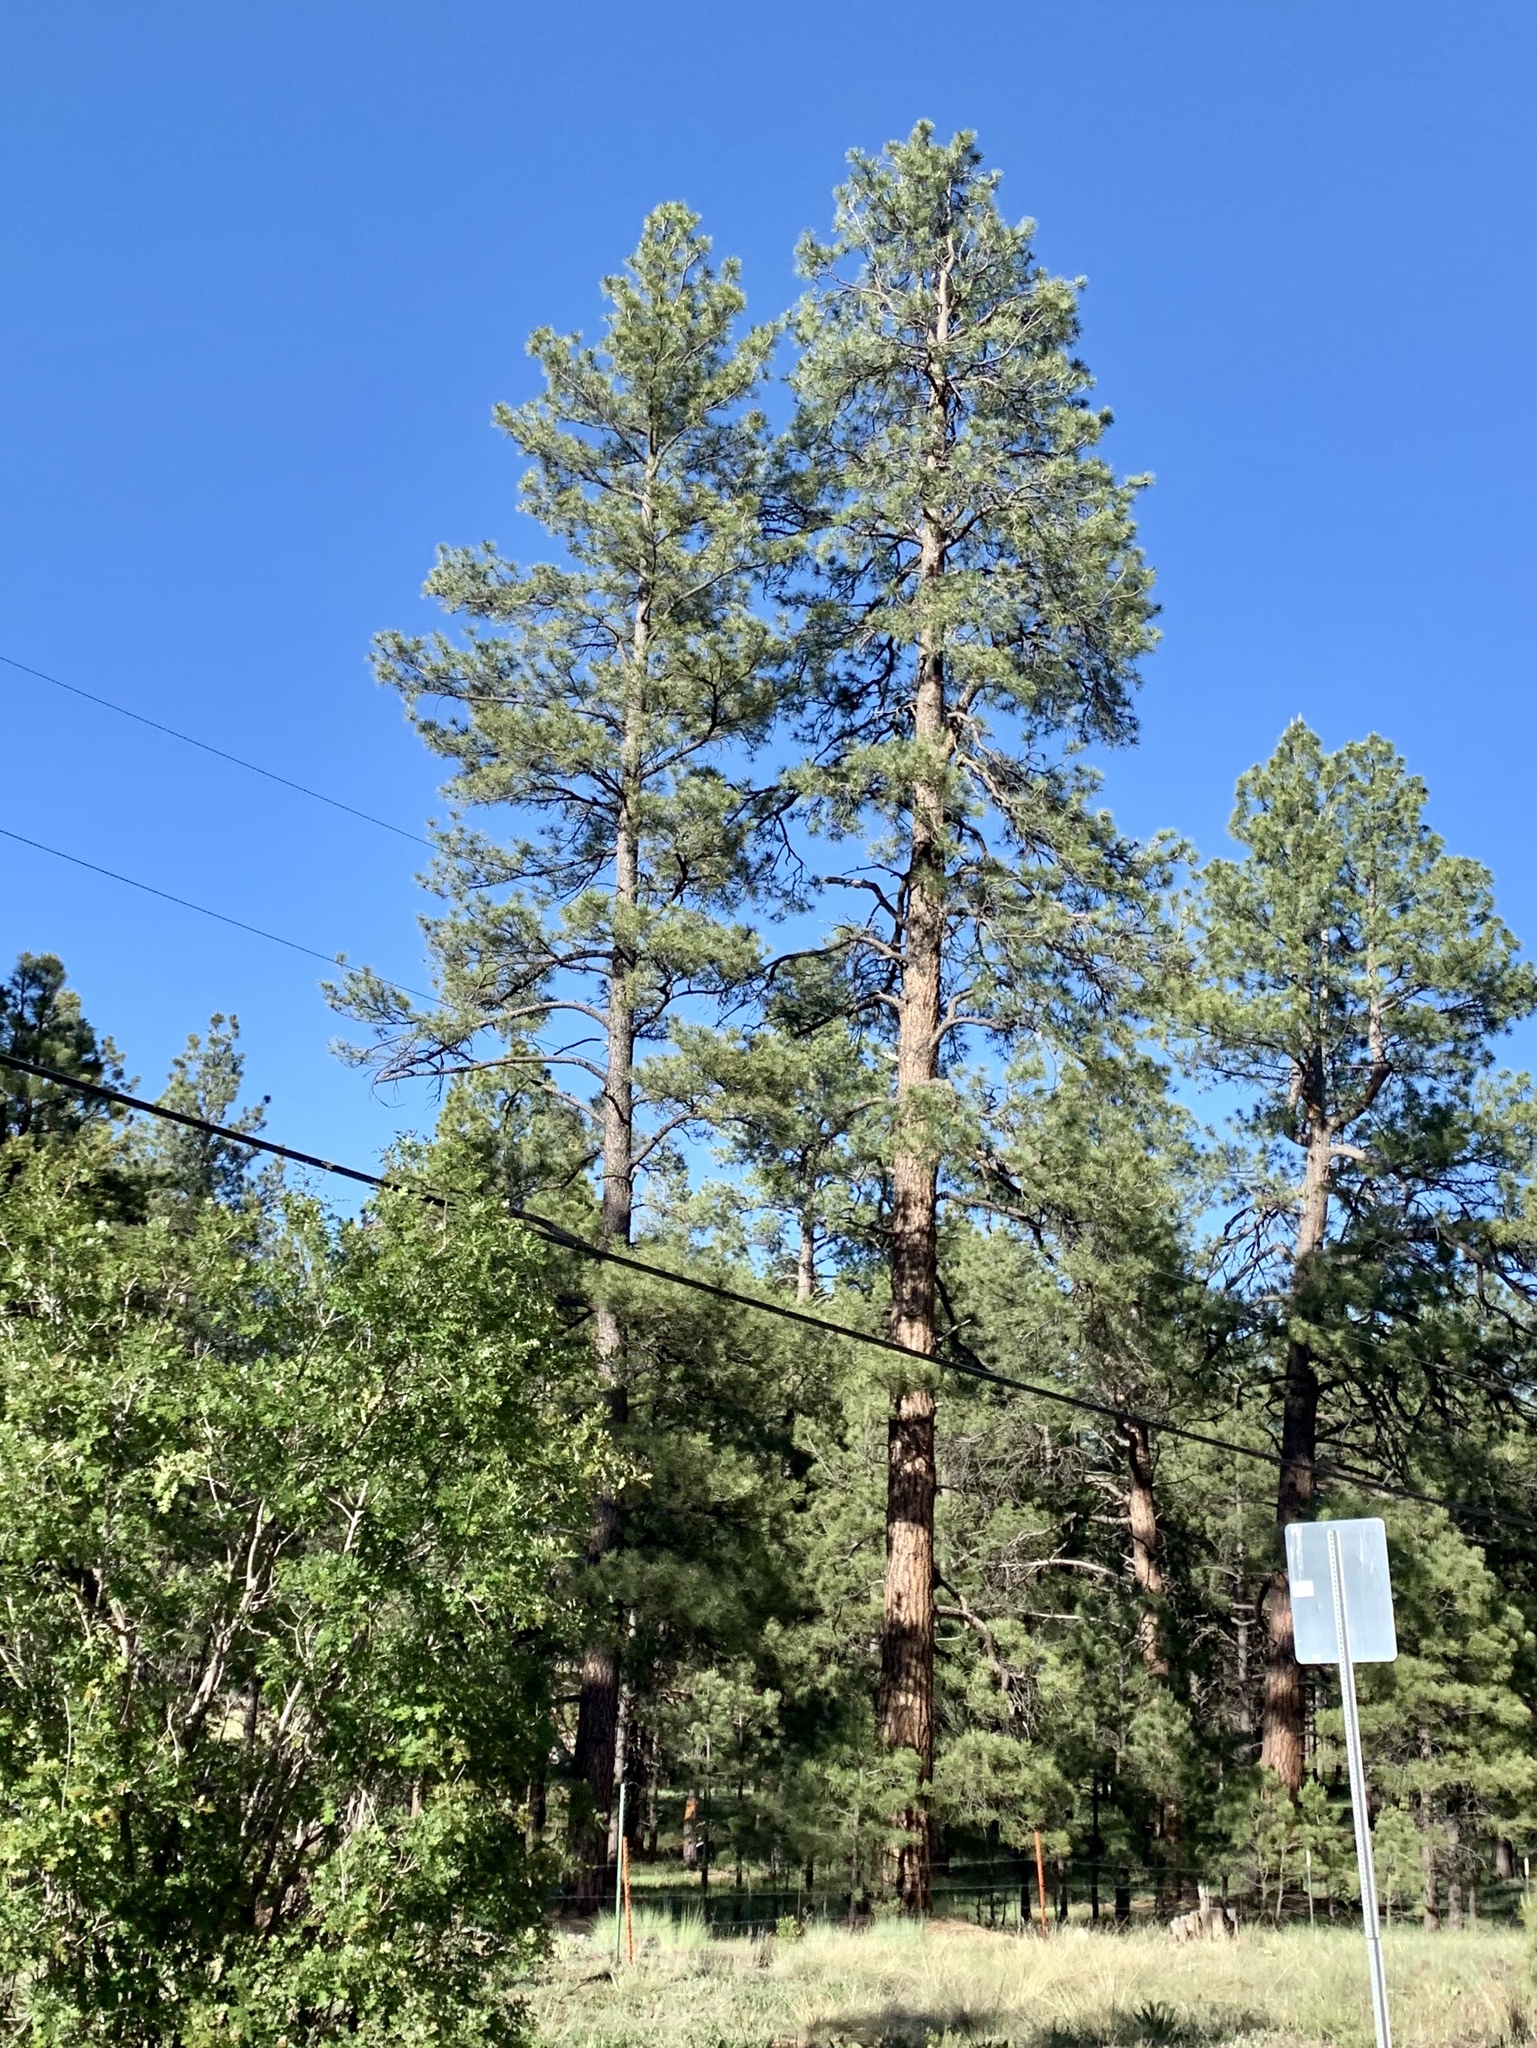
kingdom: Plantae
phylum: Tracheophyta
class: Pinopsida
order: Pinales
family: Pinaceae
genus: Pinus
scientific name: Pinus ponderosa
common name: Western yellow-pine
